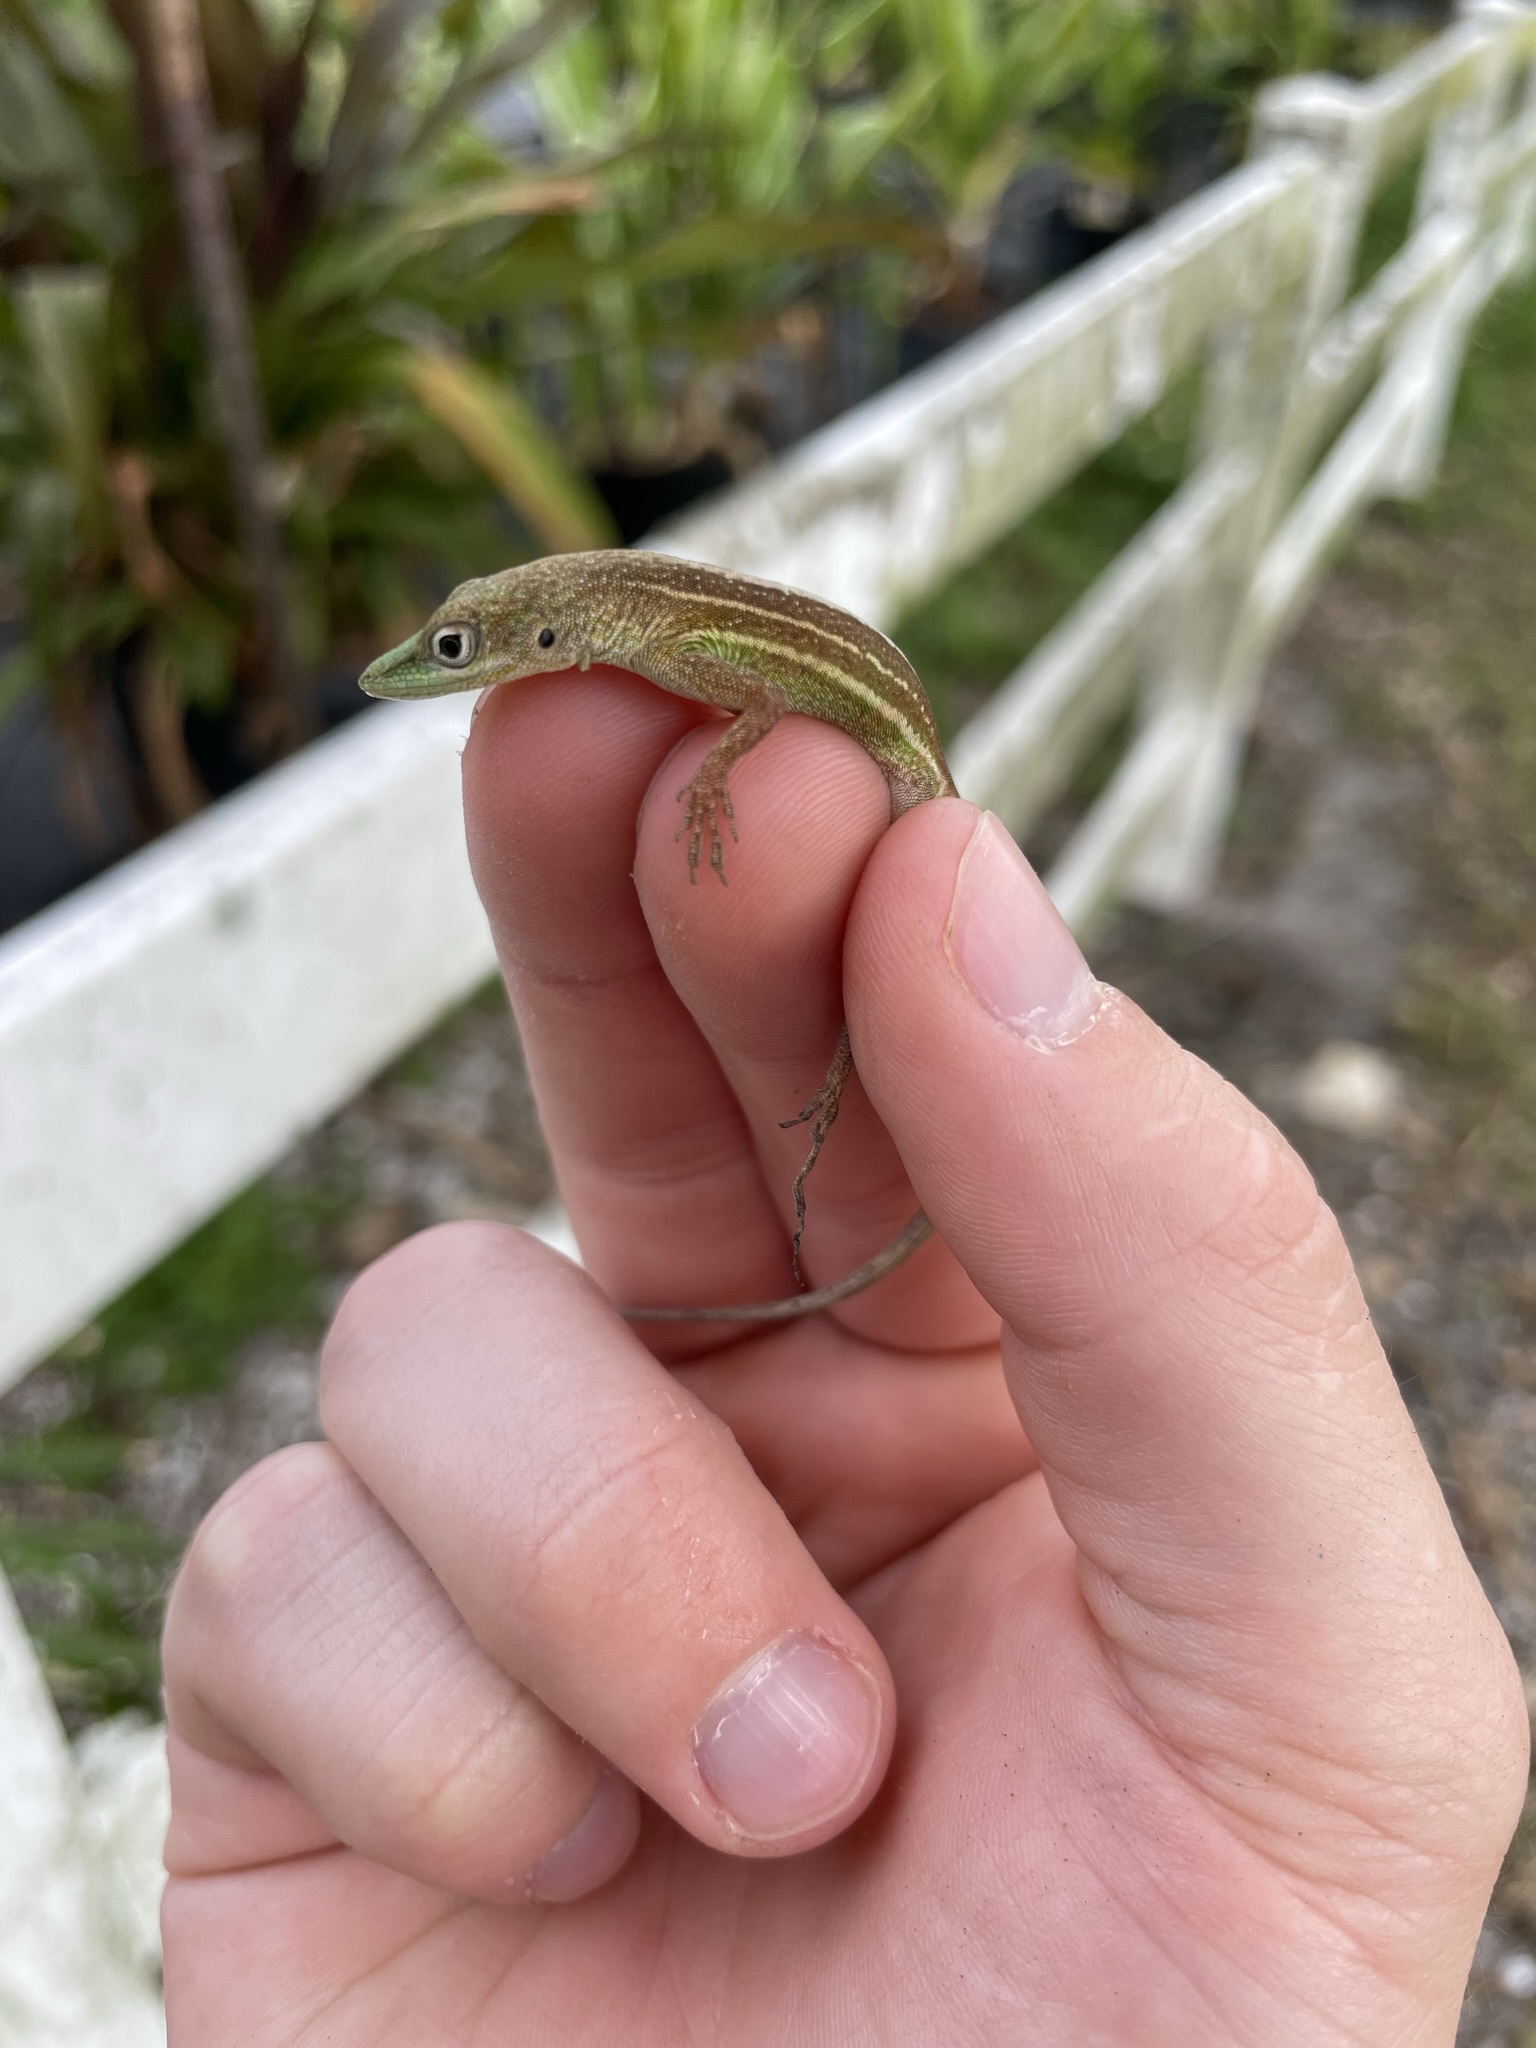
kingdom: Animalia
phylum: Chordata
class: Squamata
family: Dactyloidae
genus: Anolis
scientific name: Anolis chlorocyanus
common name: Hispaniolan green anole
